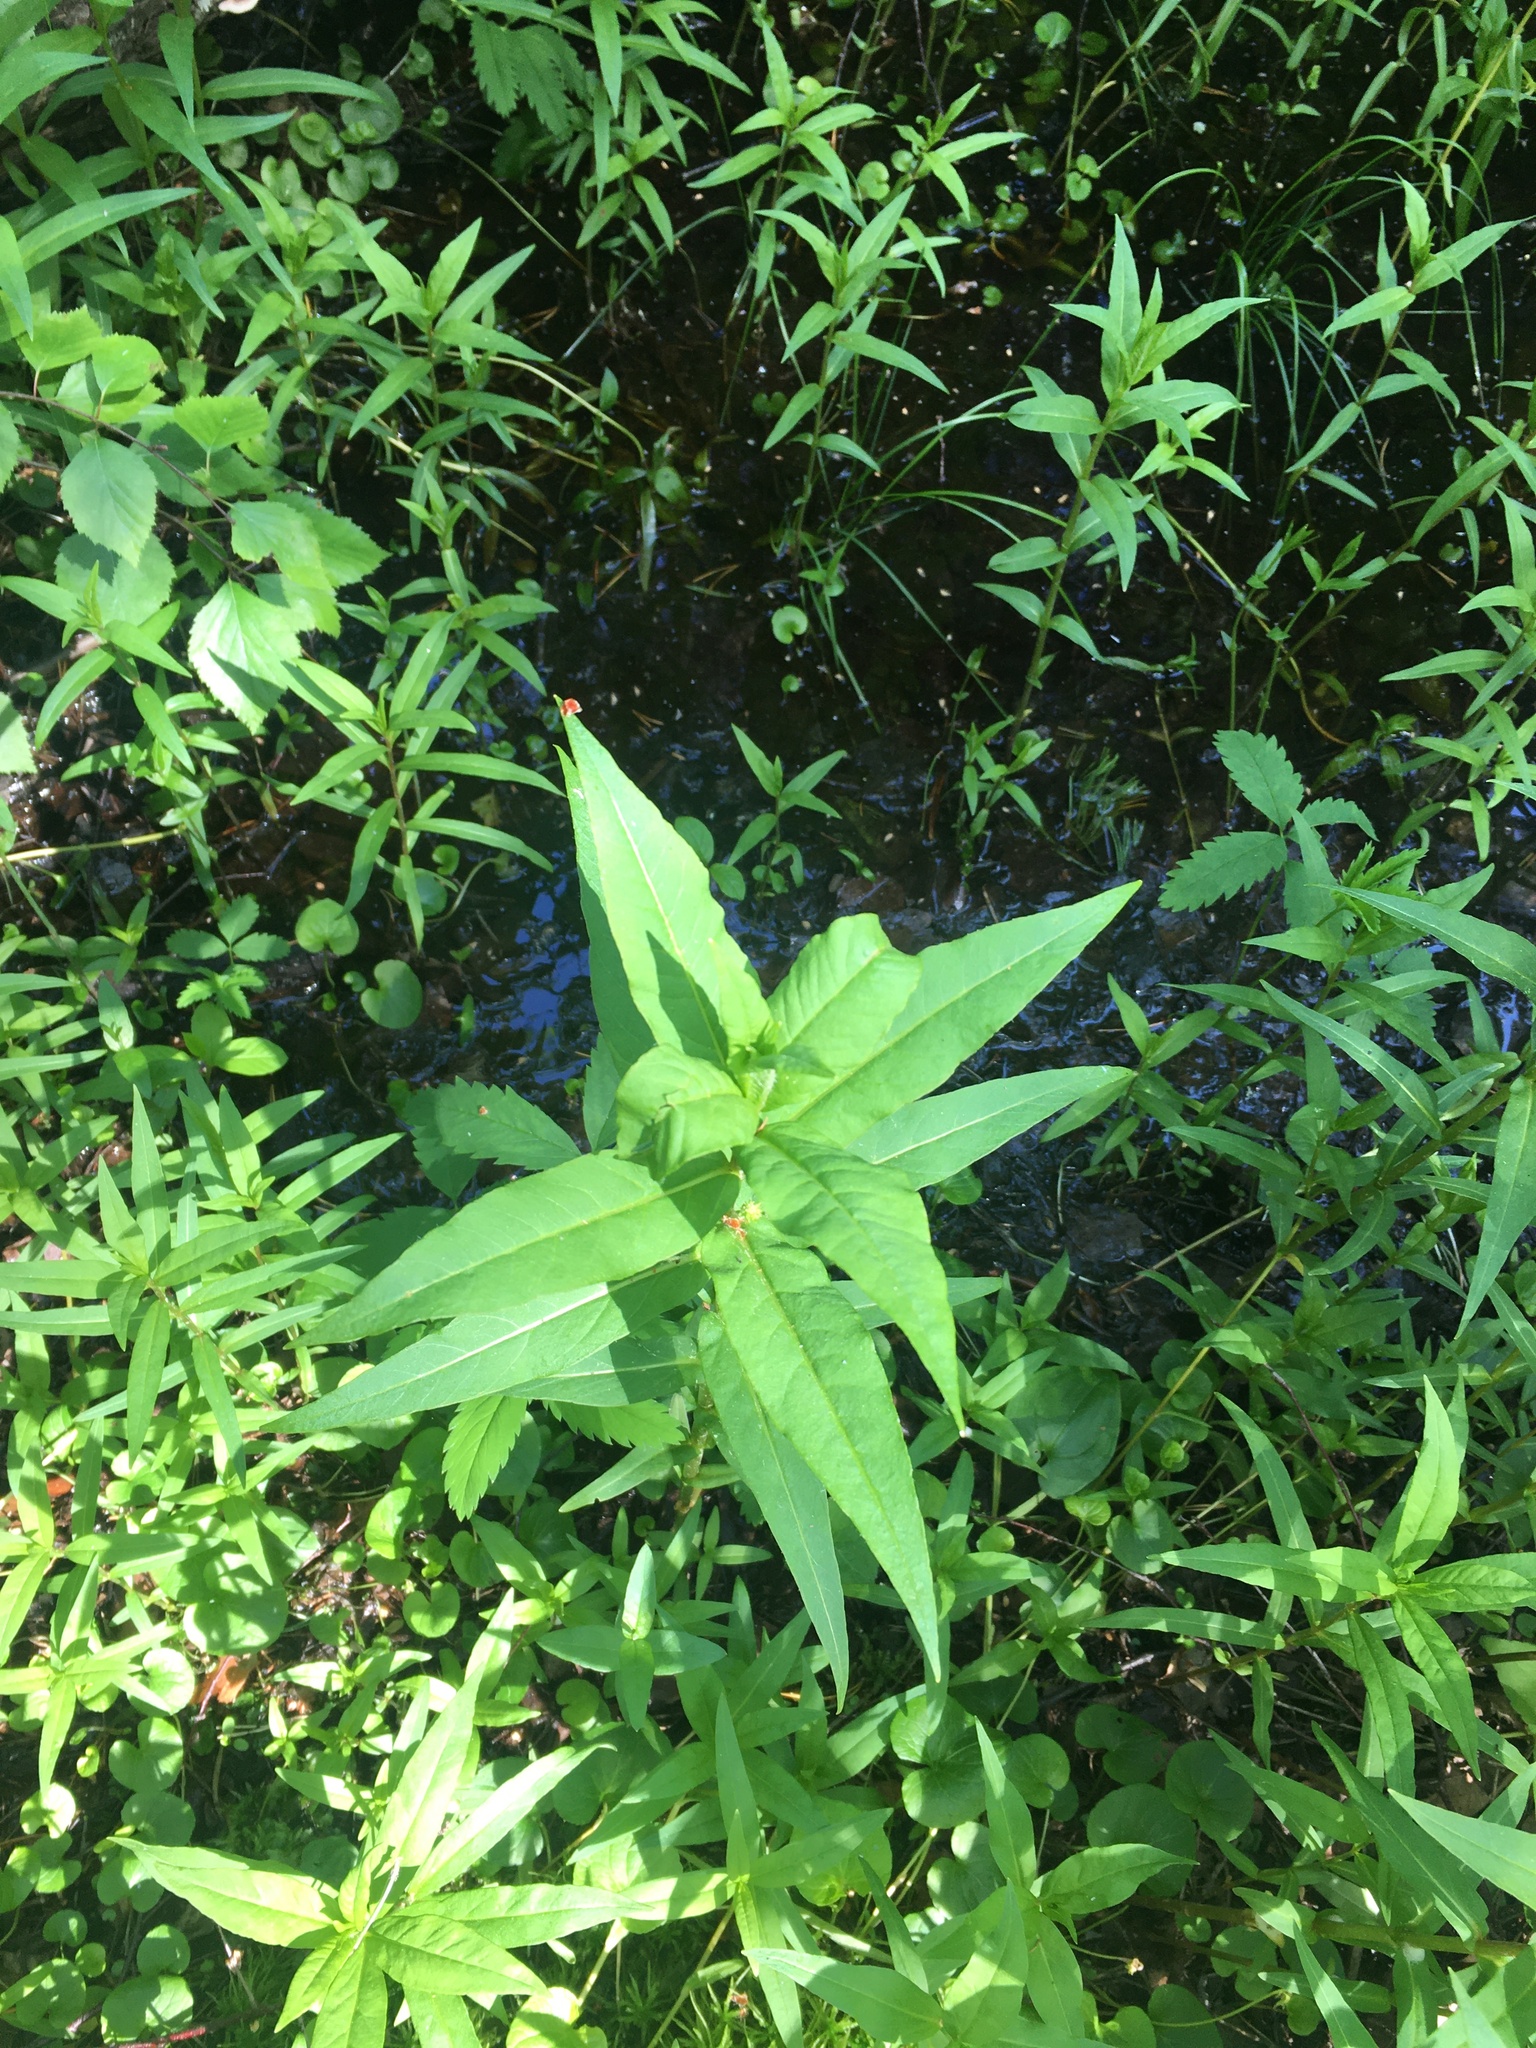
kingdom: Plantae
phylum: Tracheophyta
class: Magnoliopsida
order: Ericales
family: Primulaceae
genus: Lysimachia
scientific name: Lysimachia thyrsiflora
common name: Tufted loosestrife
